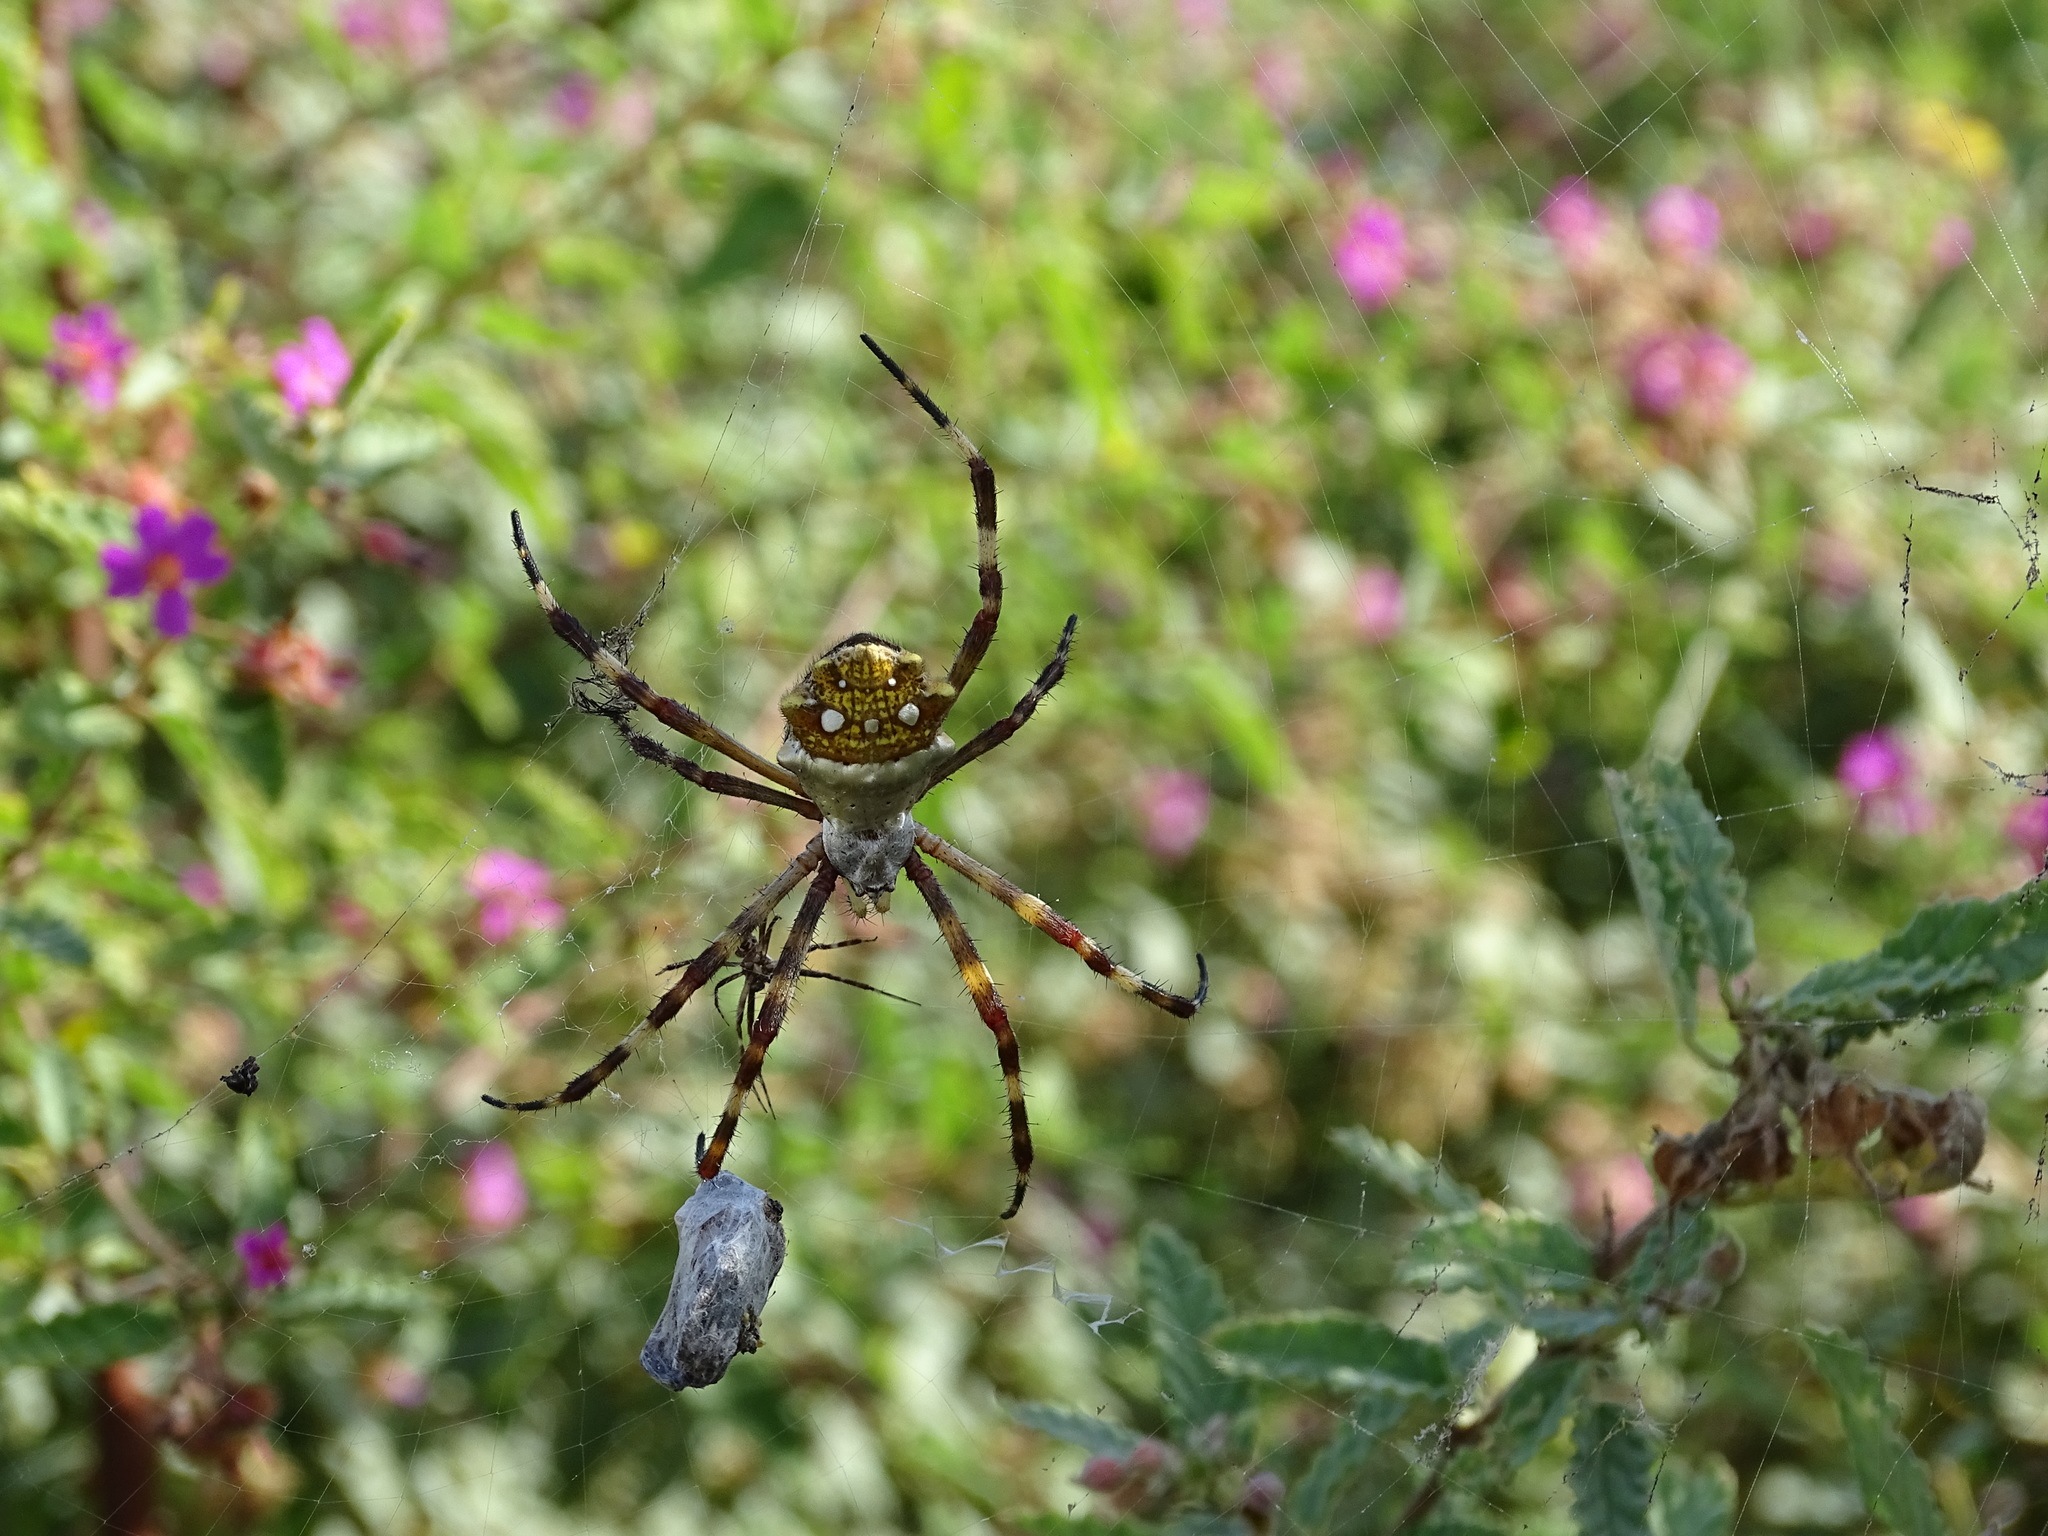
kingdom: Animalia
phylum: Arthropoda
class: Arachnida
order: Araneae
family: Araneidae
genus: Argiope
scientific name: Argiope butchko
